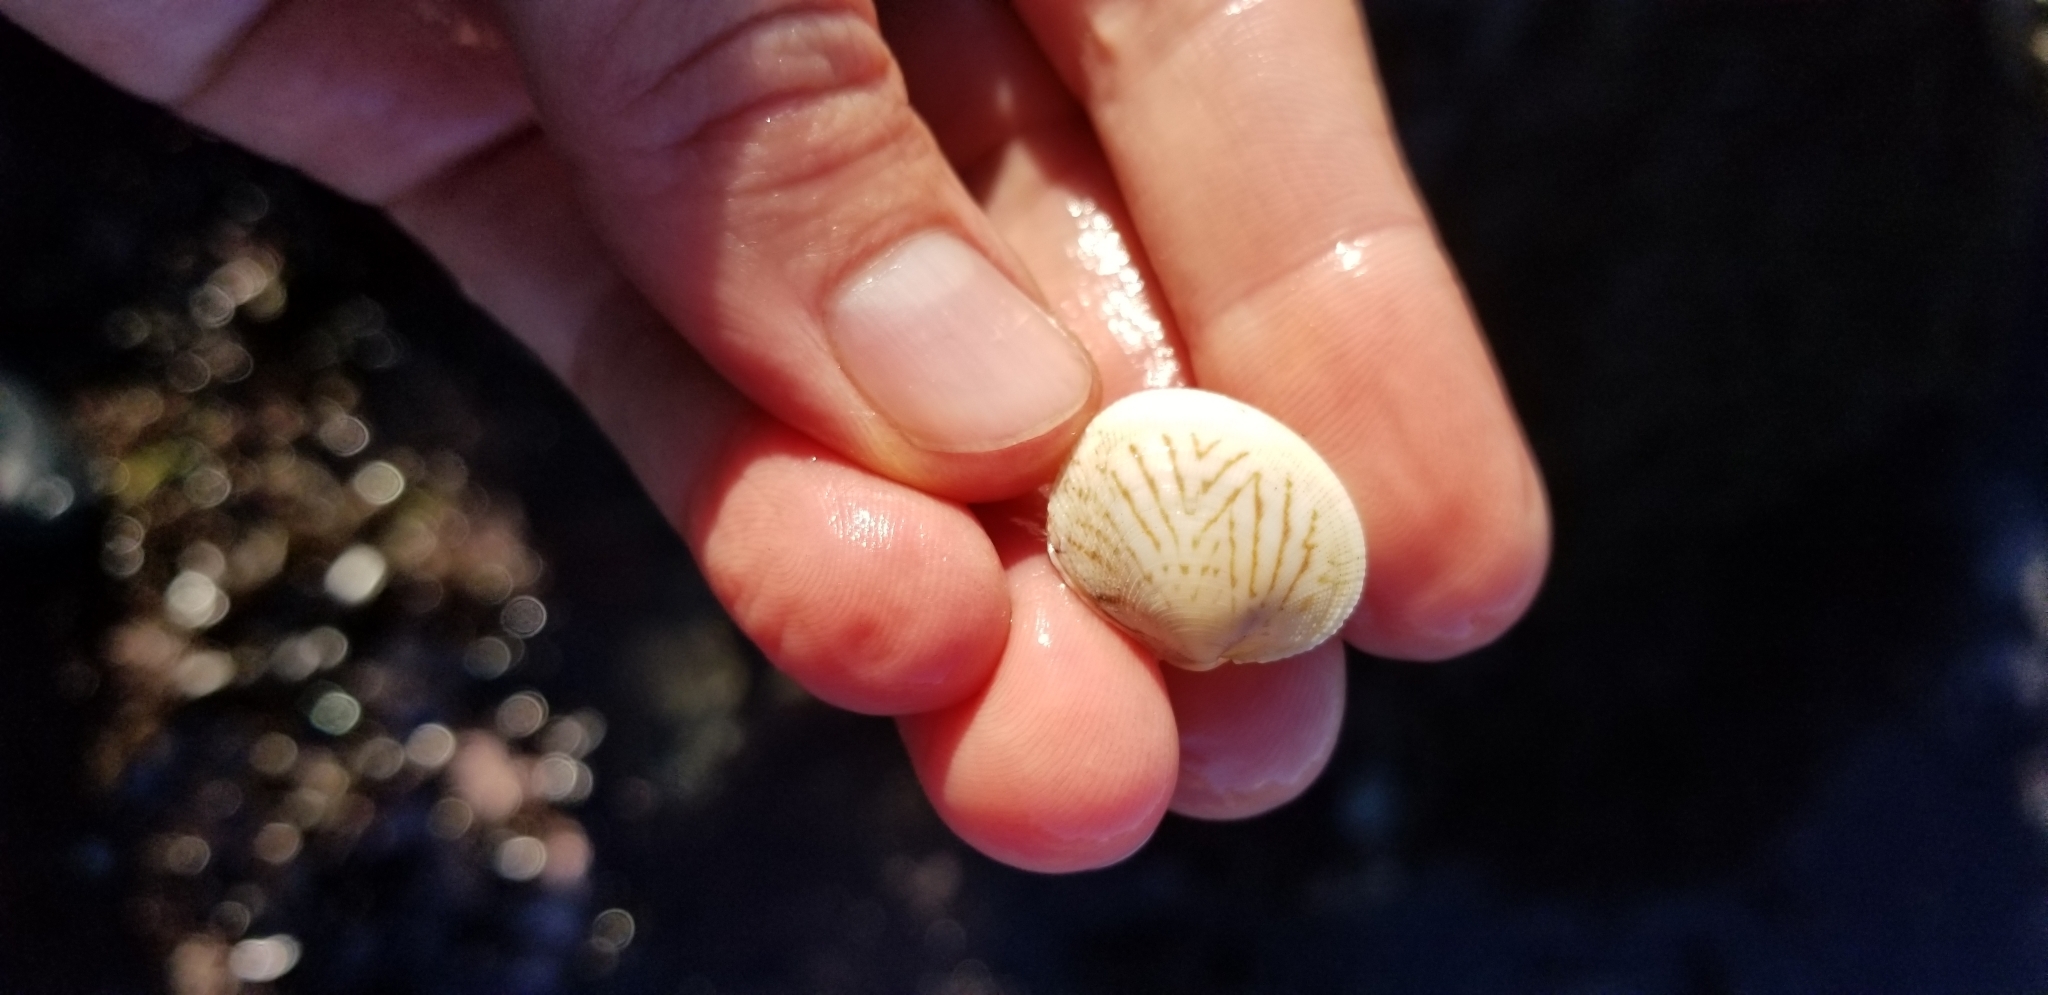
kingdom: Animalia
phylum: Mollusca
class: Bivalvia
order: Venerida
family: Veneridae
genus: Leukoma
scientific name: Leukoma staminea
